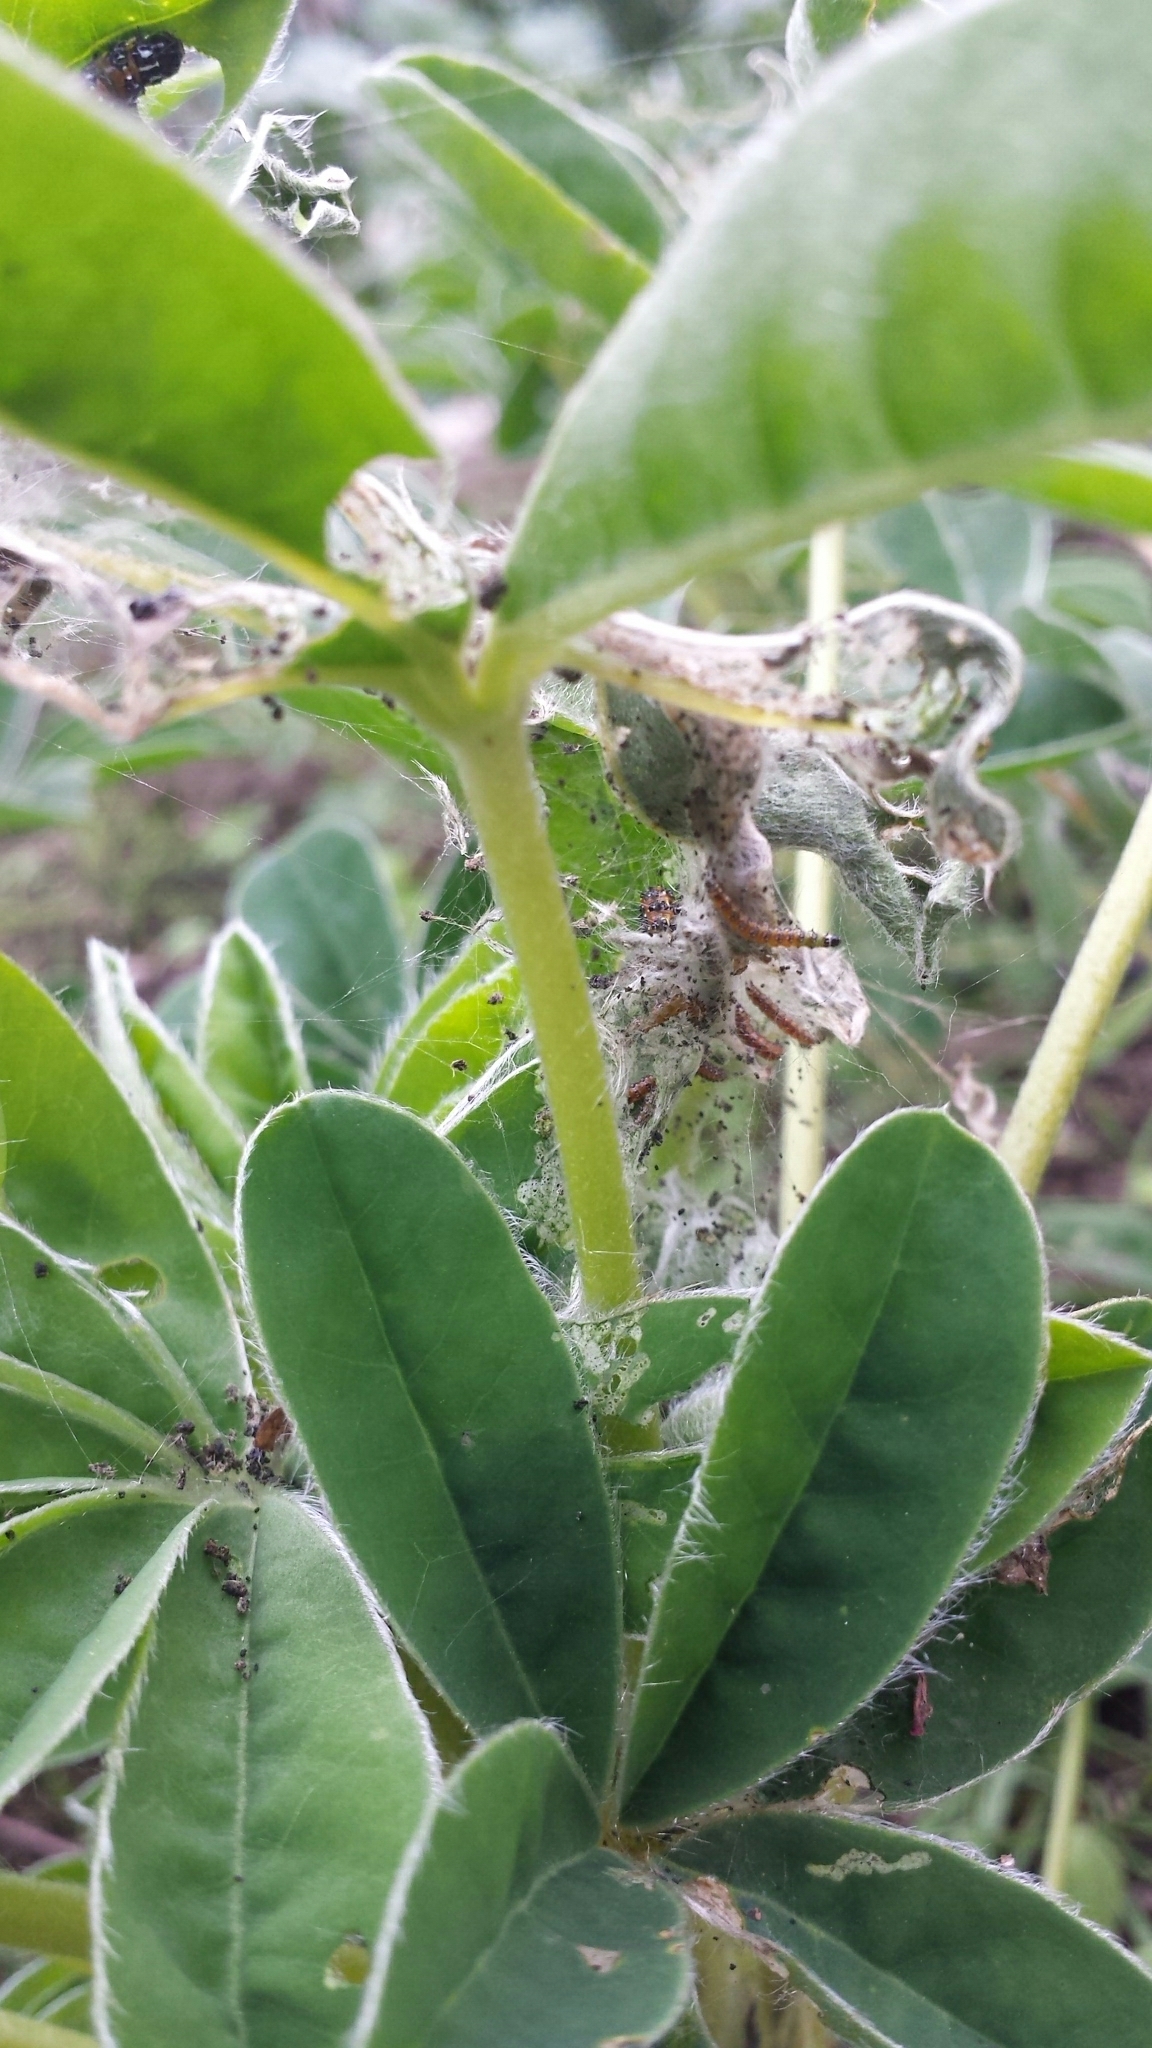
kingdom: Animalia
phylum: Arthropoda
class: Insecta
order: Lepidoptera
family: Crambidae
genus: Uresiphita
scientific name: Uresiphita reversalis
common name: Genista broom moth
